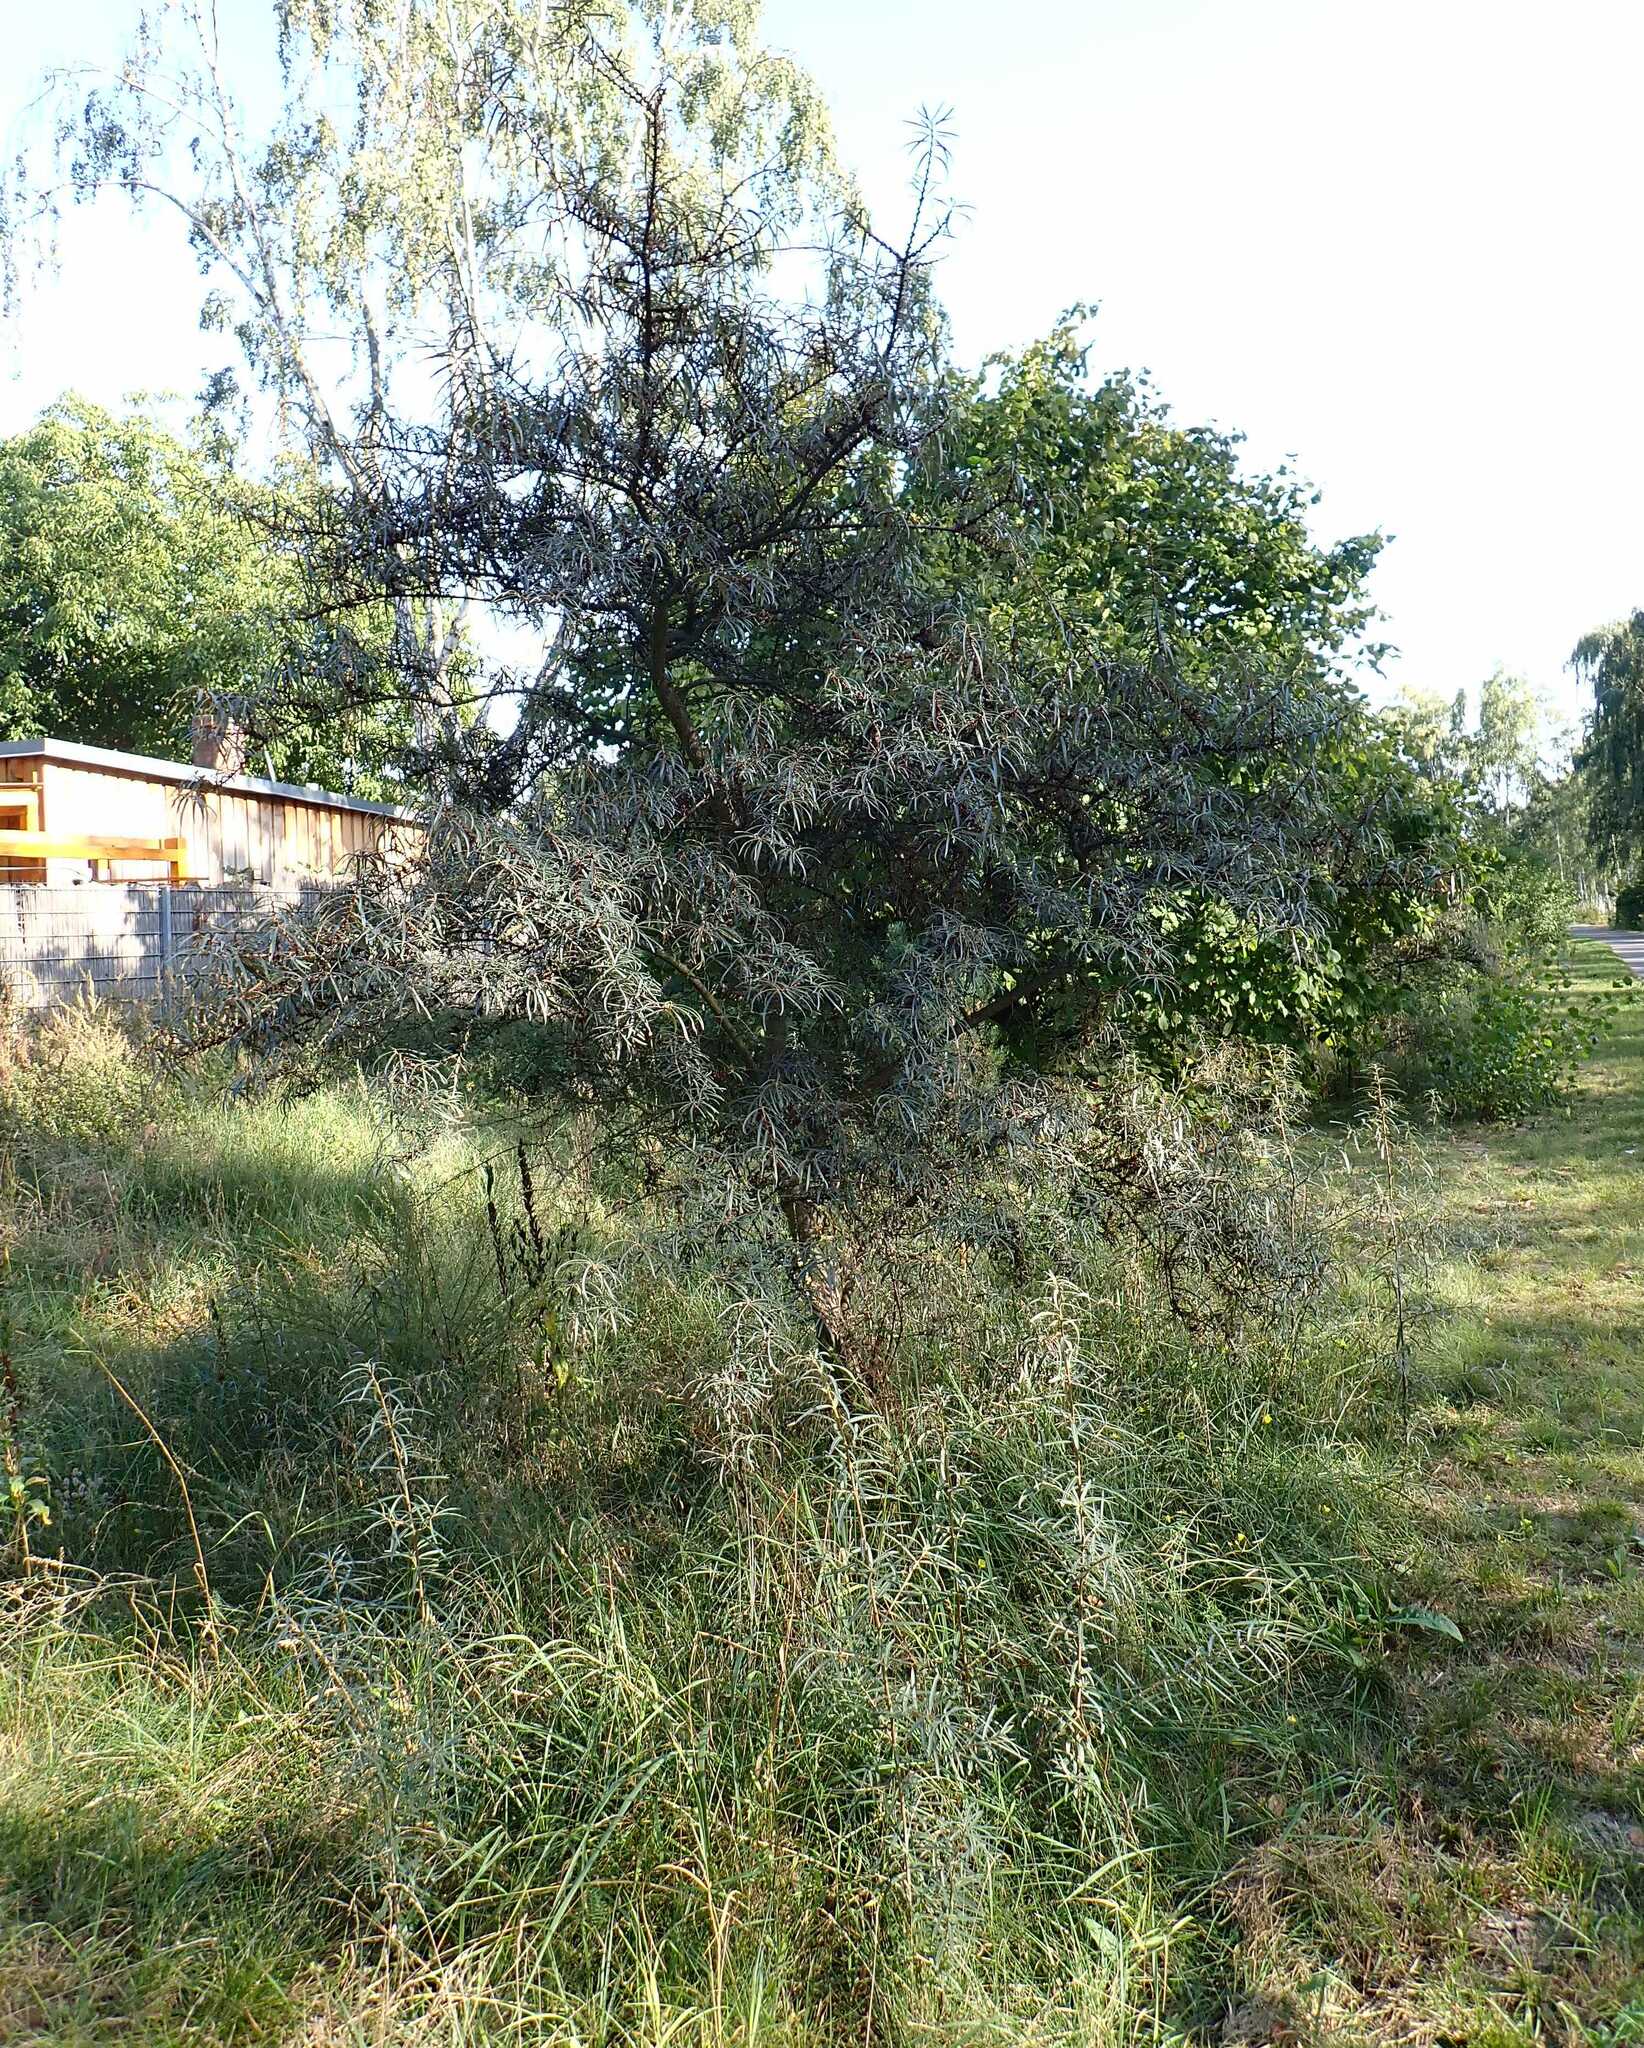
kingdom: Plantae
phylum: Tracheophyta
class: Magnoliopsida
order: Rosales
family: Elaeagnaceae
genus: Hippophae
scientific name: Hippophae rhamnoides
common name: Sea-buckthorn
